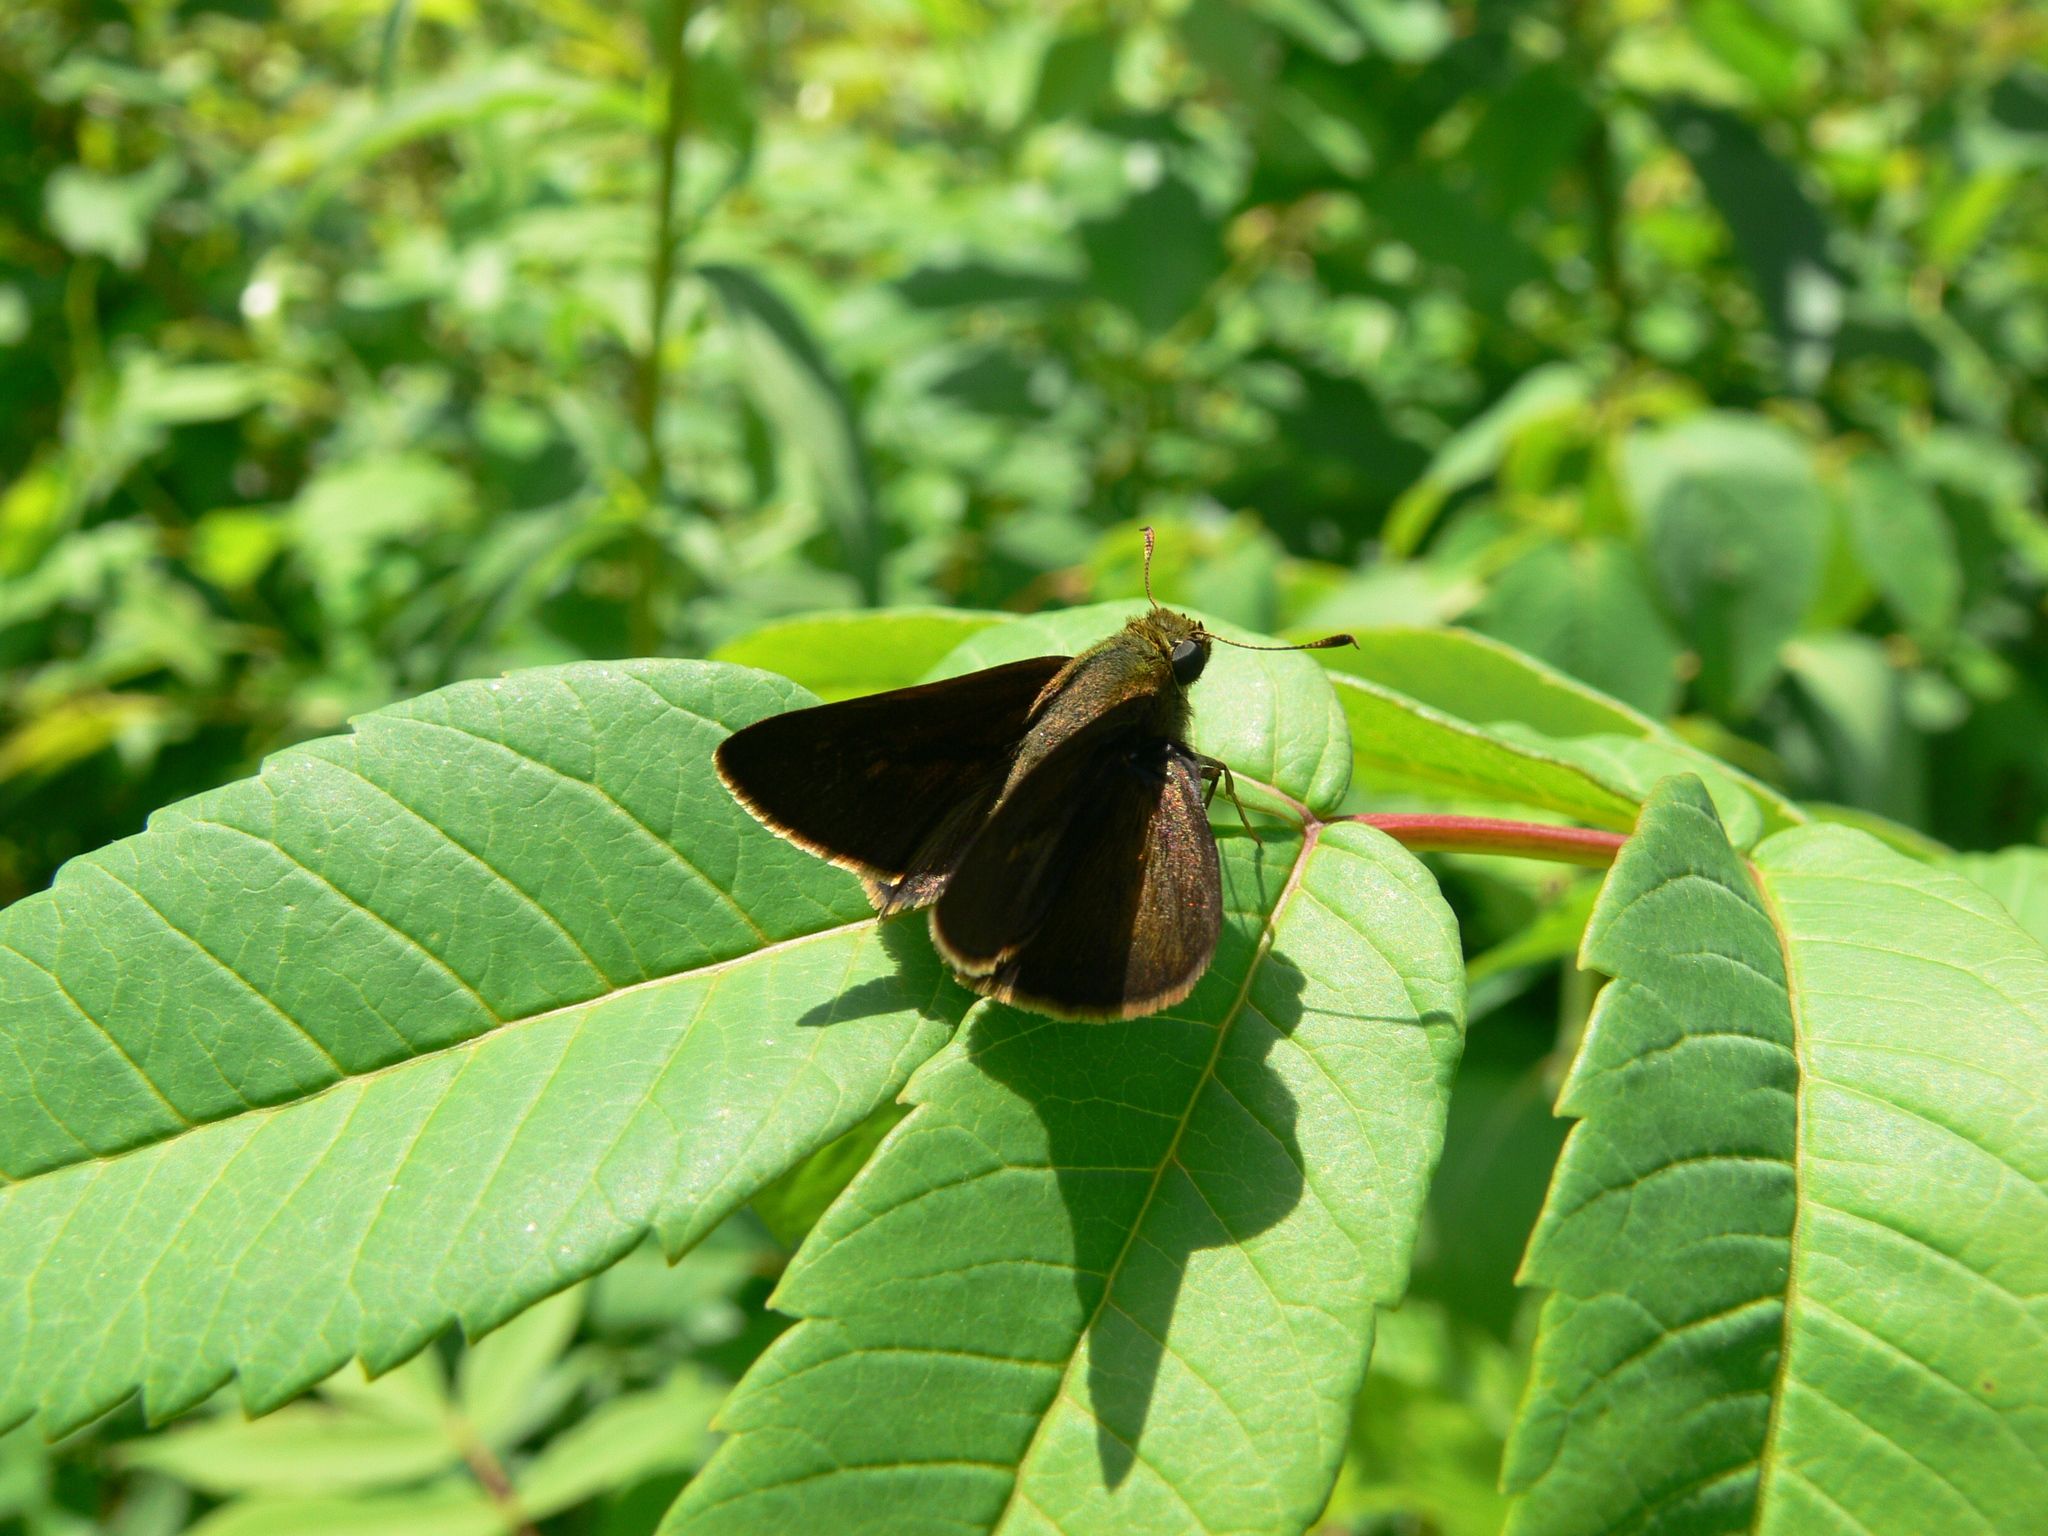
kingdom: Animalia
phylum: Arthropoda
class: Insecta
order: Lepidoptera
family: Hesperiidae
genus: Euphyes
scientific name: Euphyes vestris
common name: Dun skipper
